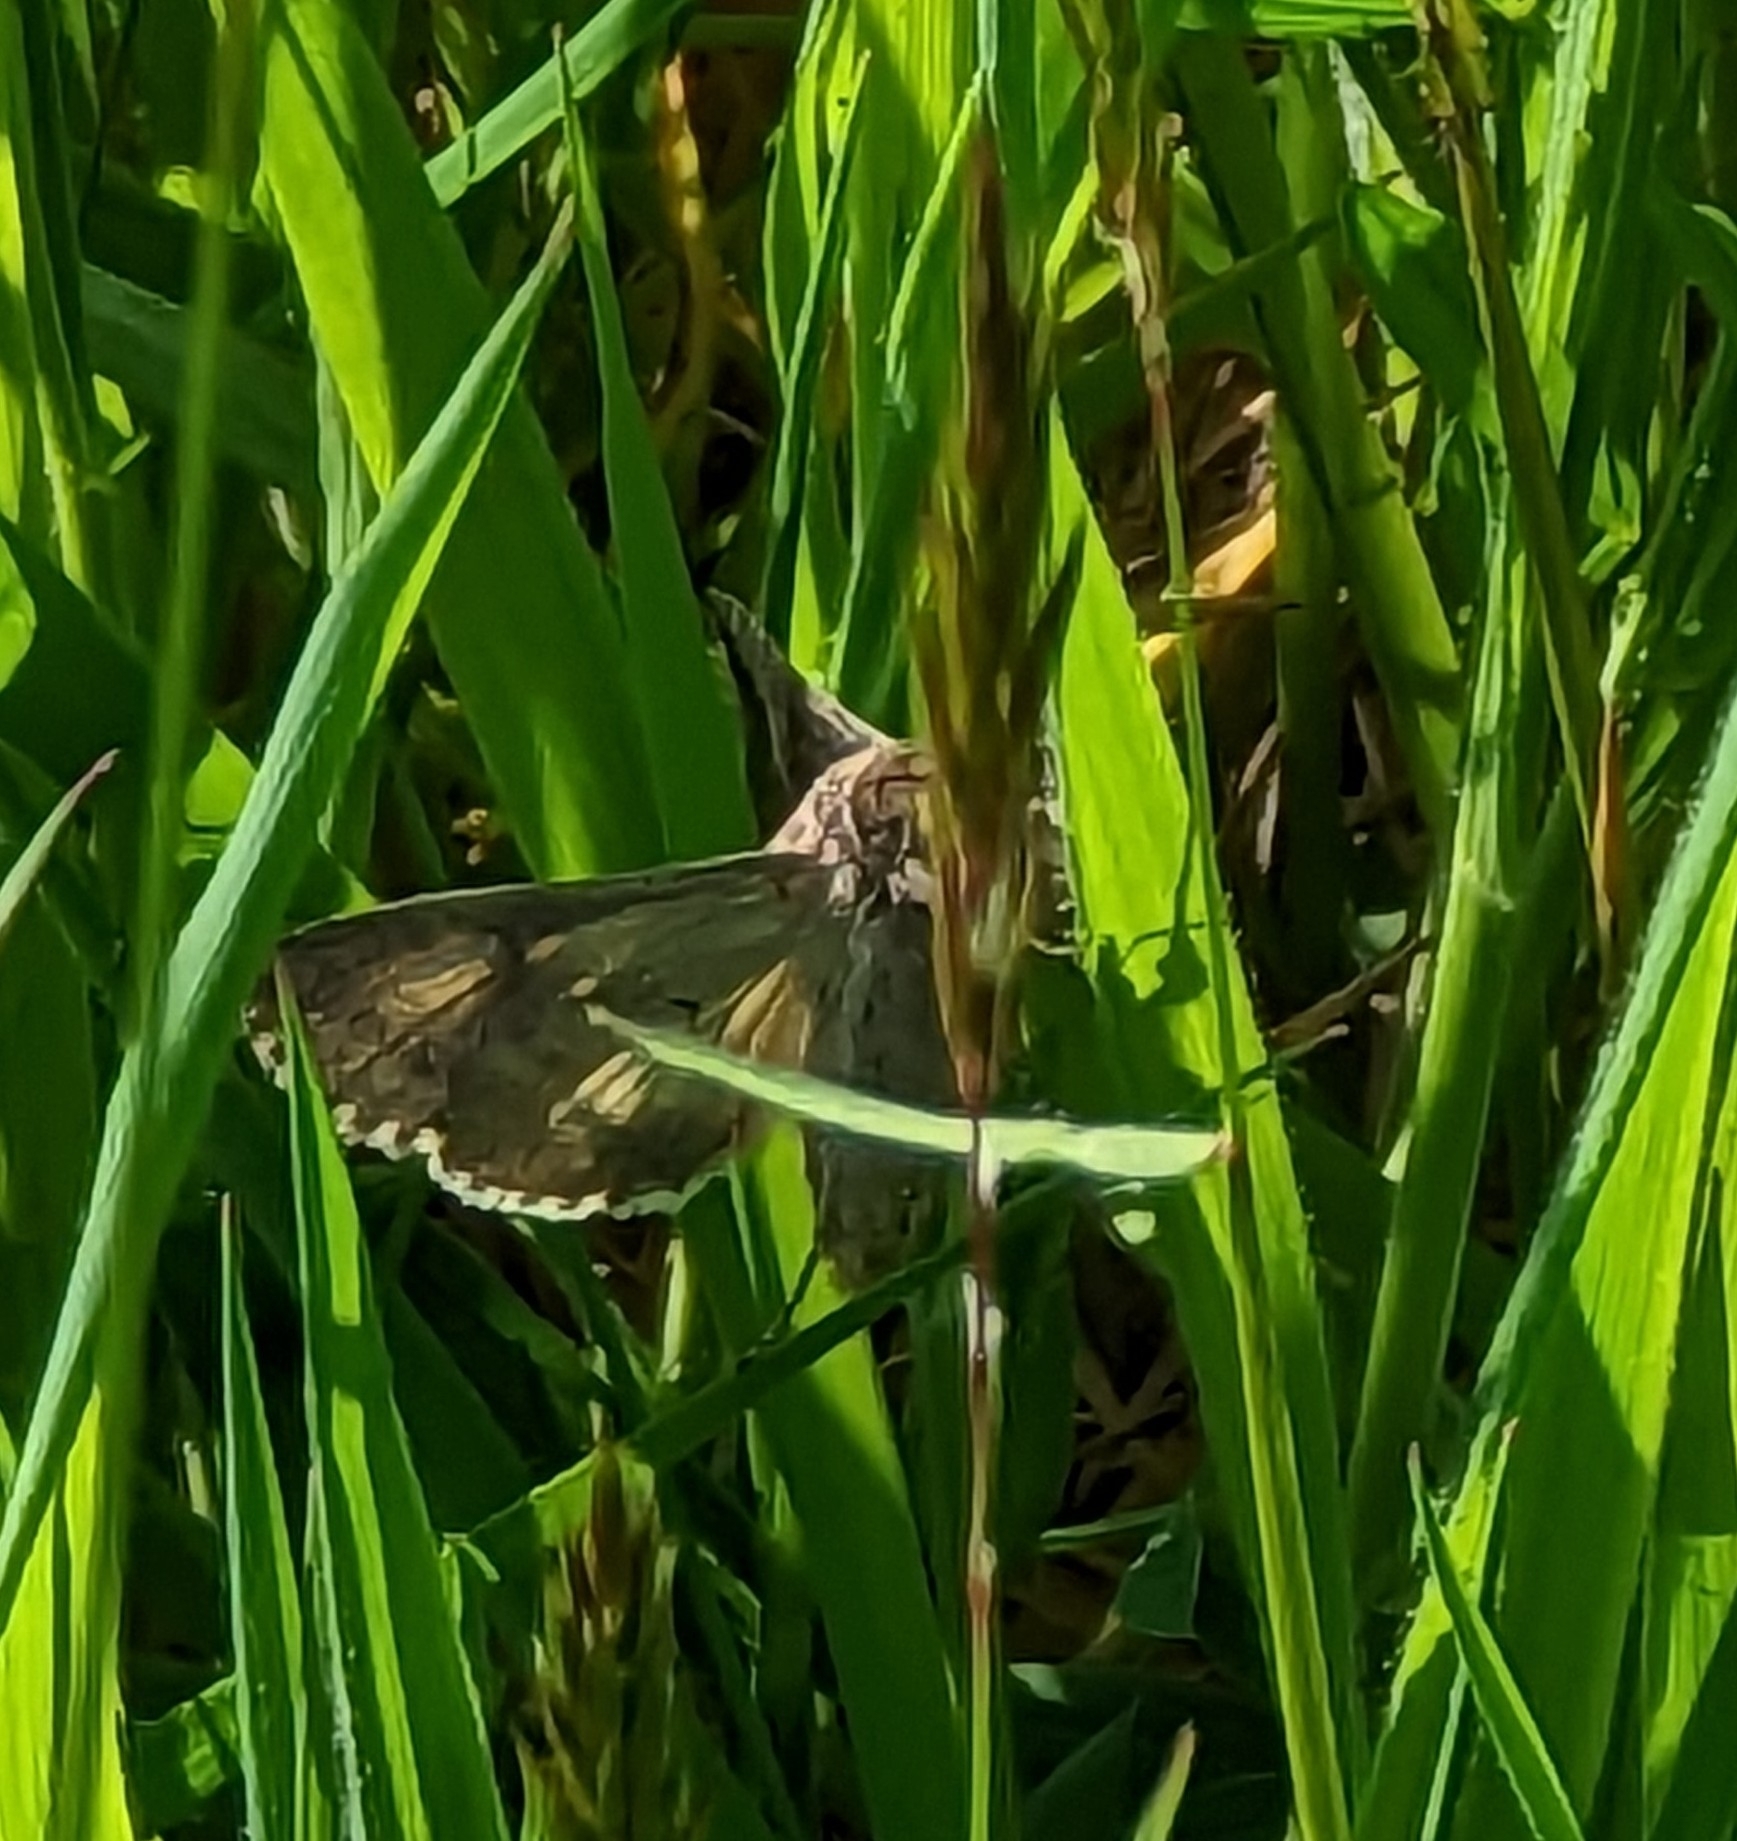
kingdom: Animalia
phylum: Arthropoda
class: Insecta
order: Lepidoptera
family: Noctuidae
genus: Autographa
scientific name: Autographa gamma
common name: Silver y
